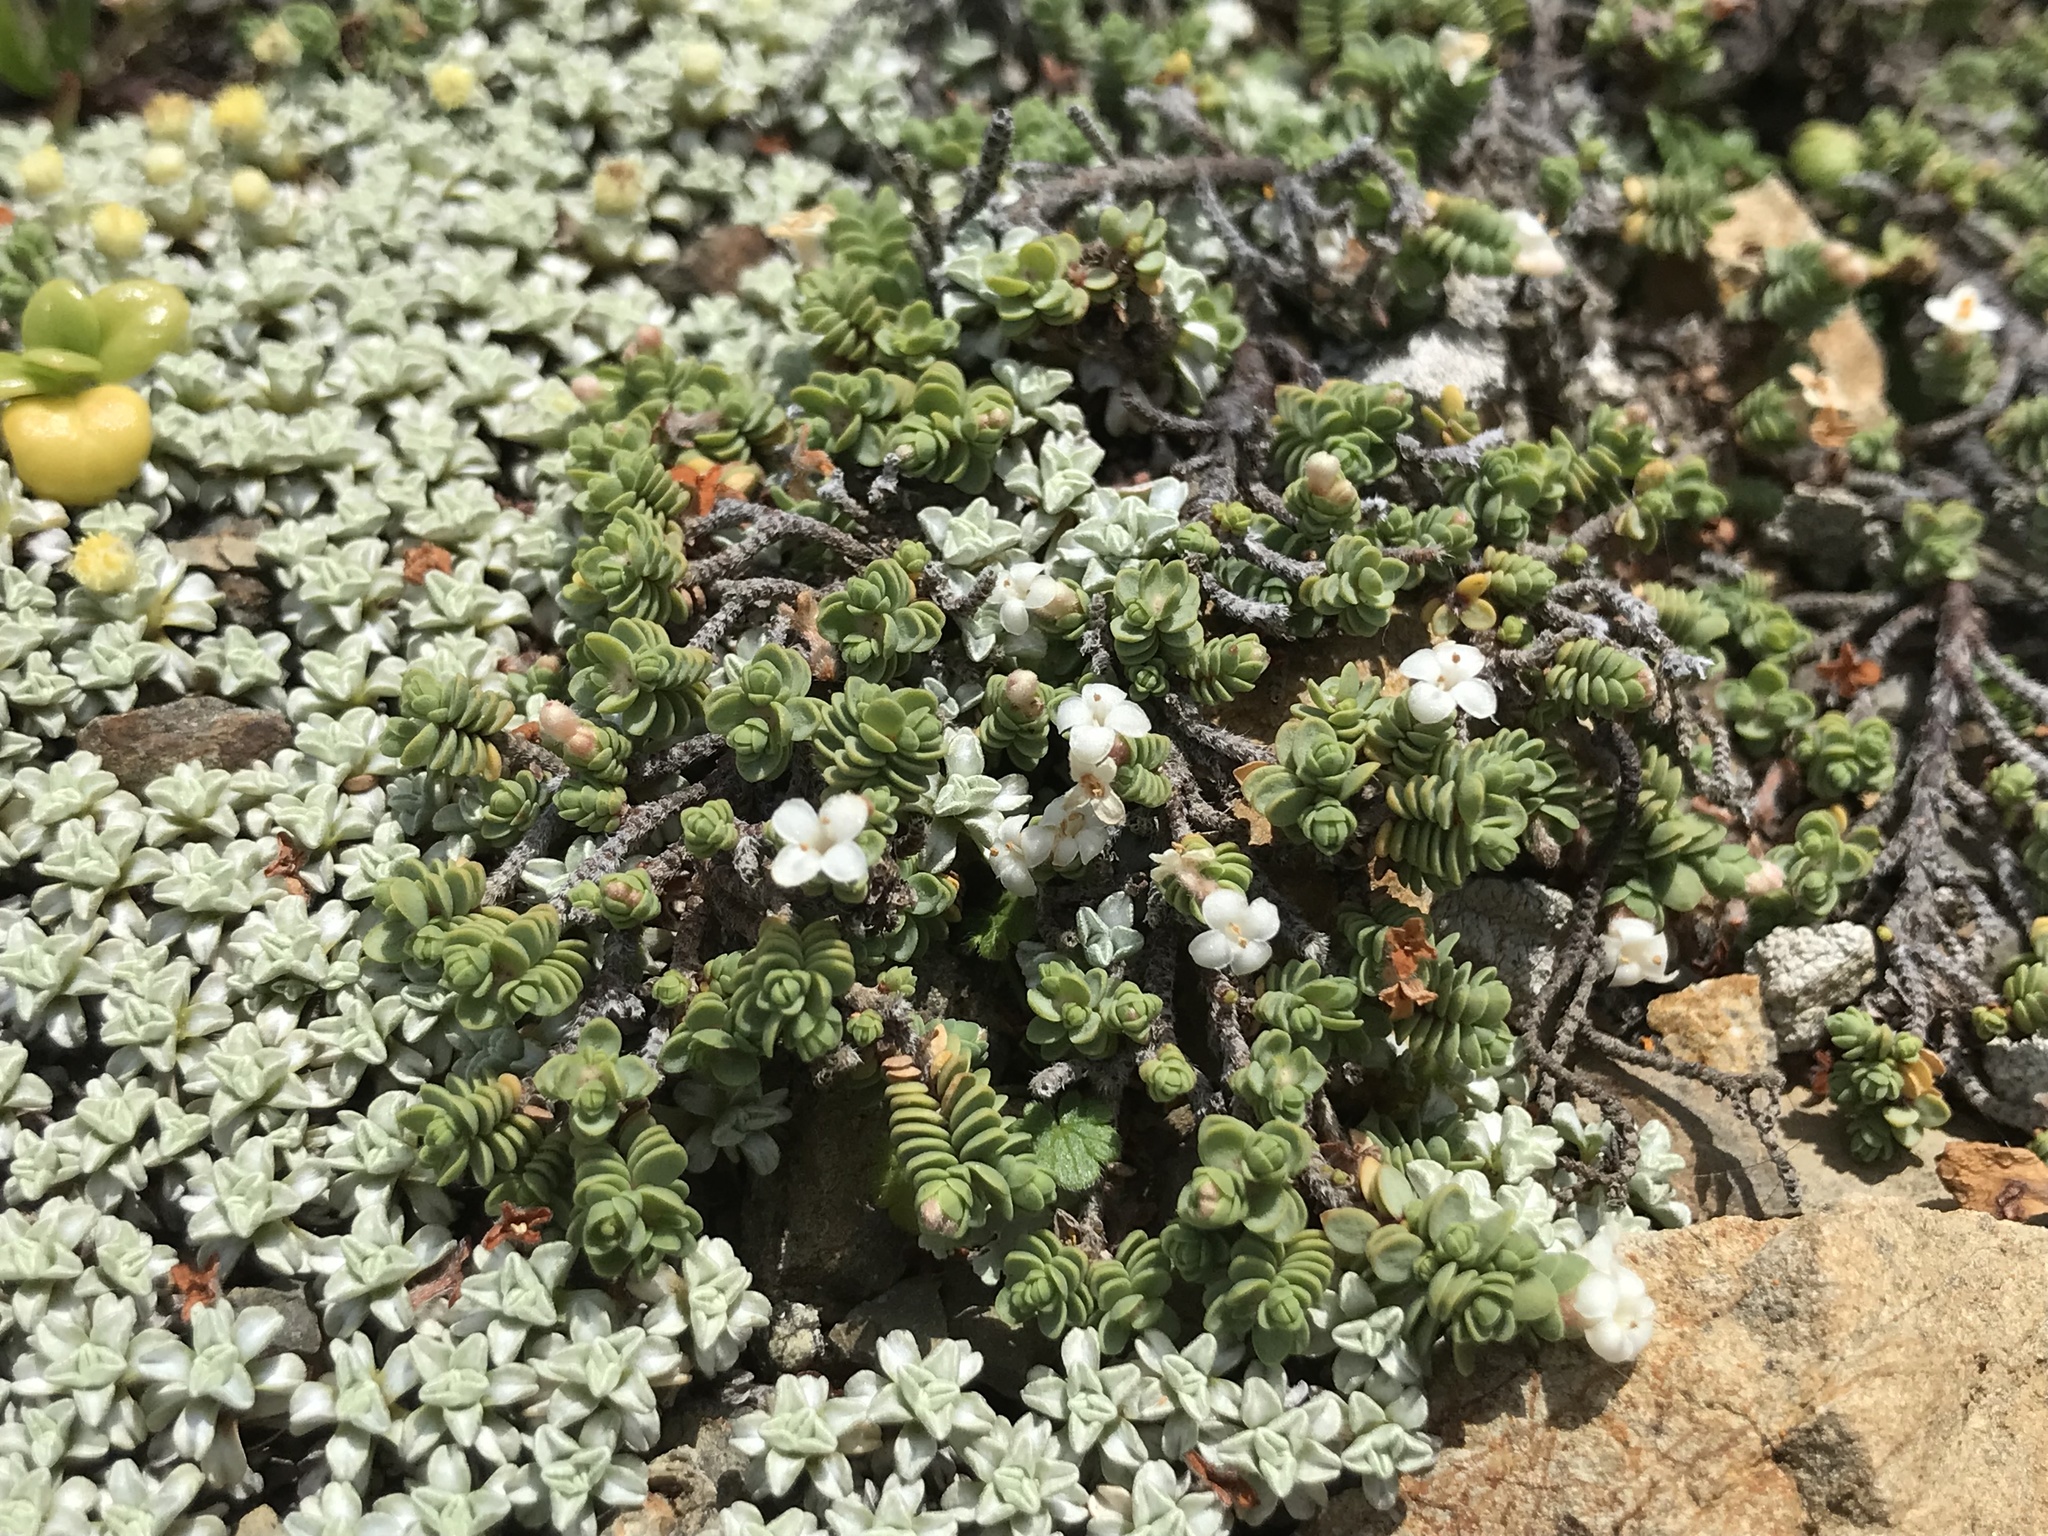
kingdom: Plantae
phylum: Tracheophyta
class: Magnoliopsida
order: Malvales
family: Thymelaeaceae
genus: Pimelea
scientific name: Pimelea carnosa
